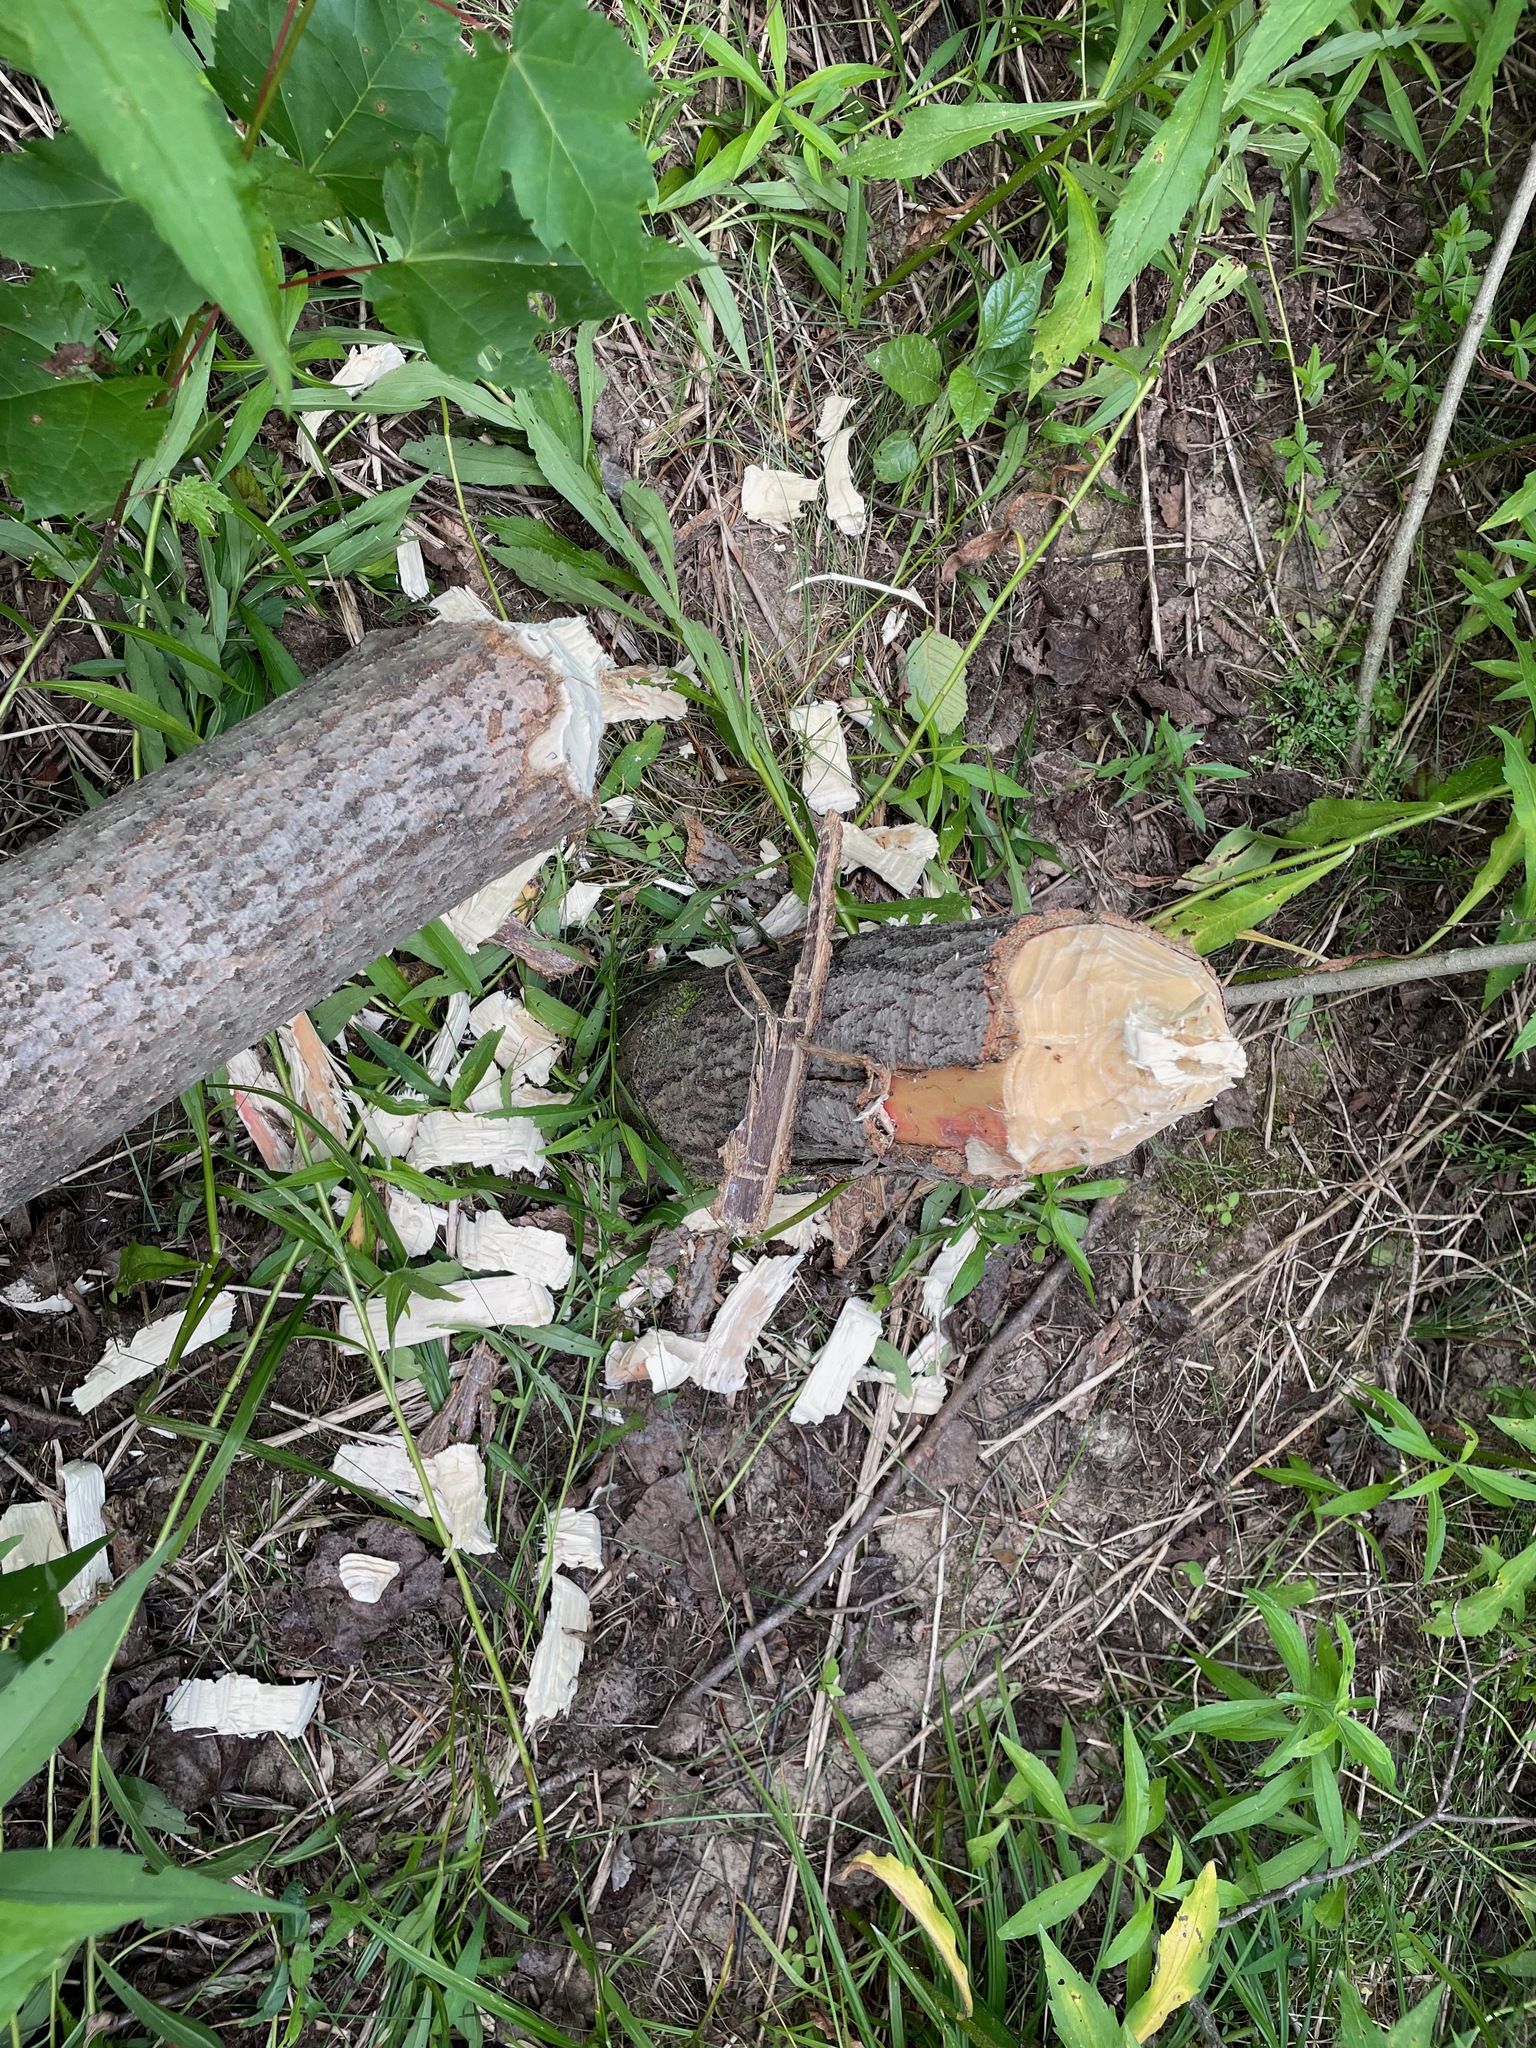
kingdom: Animalia
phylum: Chordata
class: Mammalia
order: Rodentia
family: Castoridae
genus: Castor
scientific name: Castor canadensis
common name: American beaver
